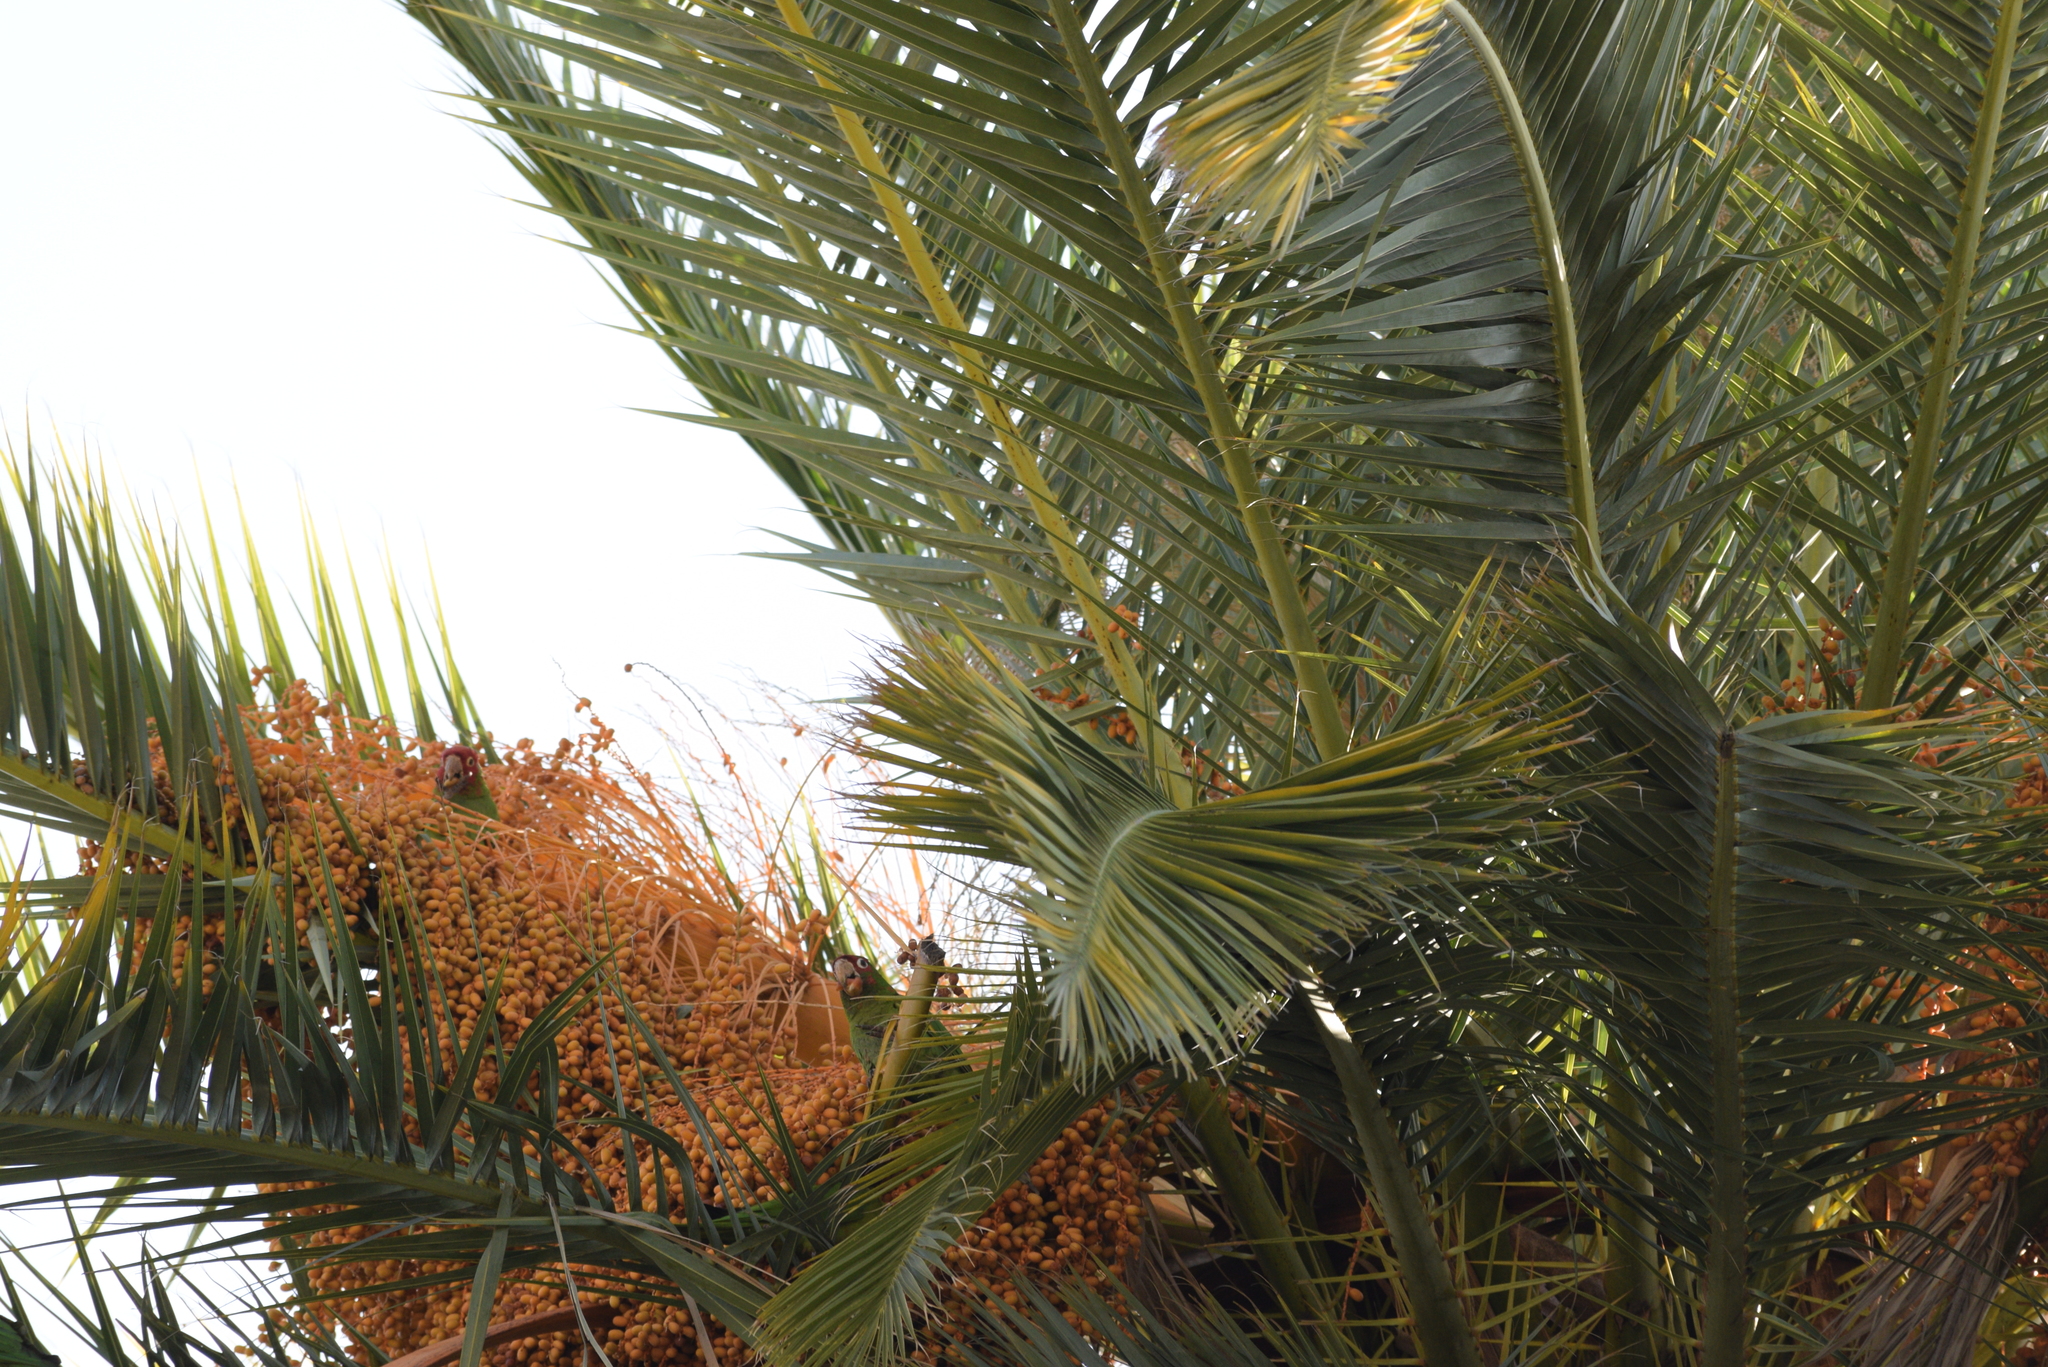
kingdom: Animalia
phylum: Chordata
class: Aves
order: Psittaciformes
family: Psittacidae
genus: Aratinga
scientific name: Aratinga mitrata
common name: Mitred parakeet
